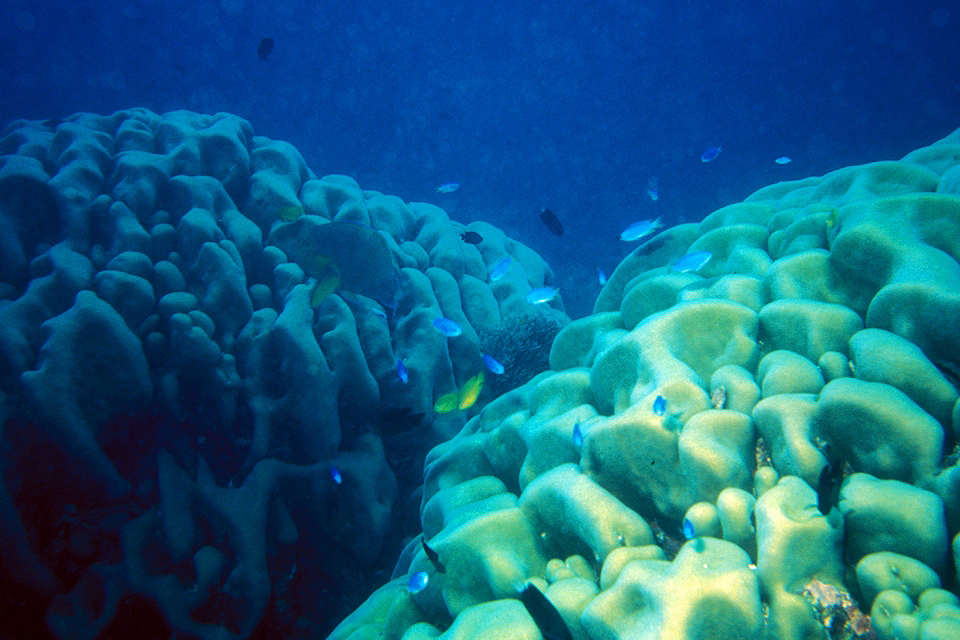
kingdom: Animalia
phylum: Cnidaria
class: Anthozoa
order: Scleractinia
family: Agariciidae
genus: Pavona
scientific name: Pavona clavus
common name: Leaf coral
